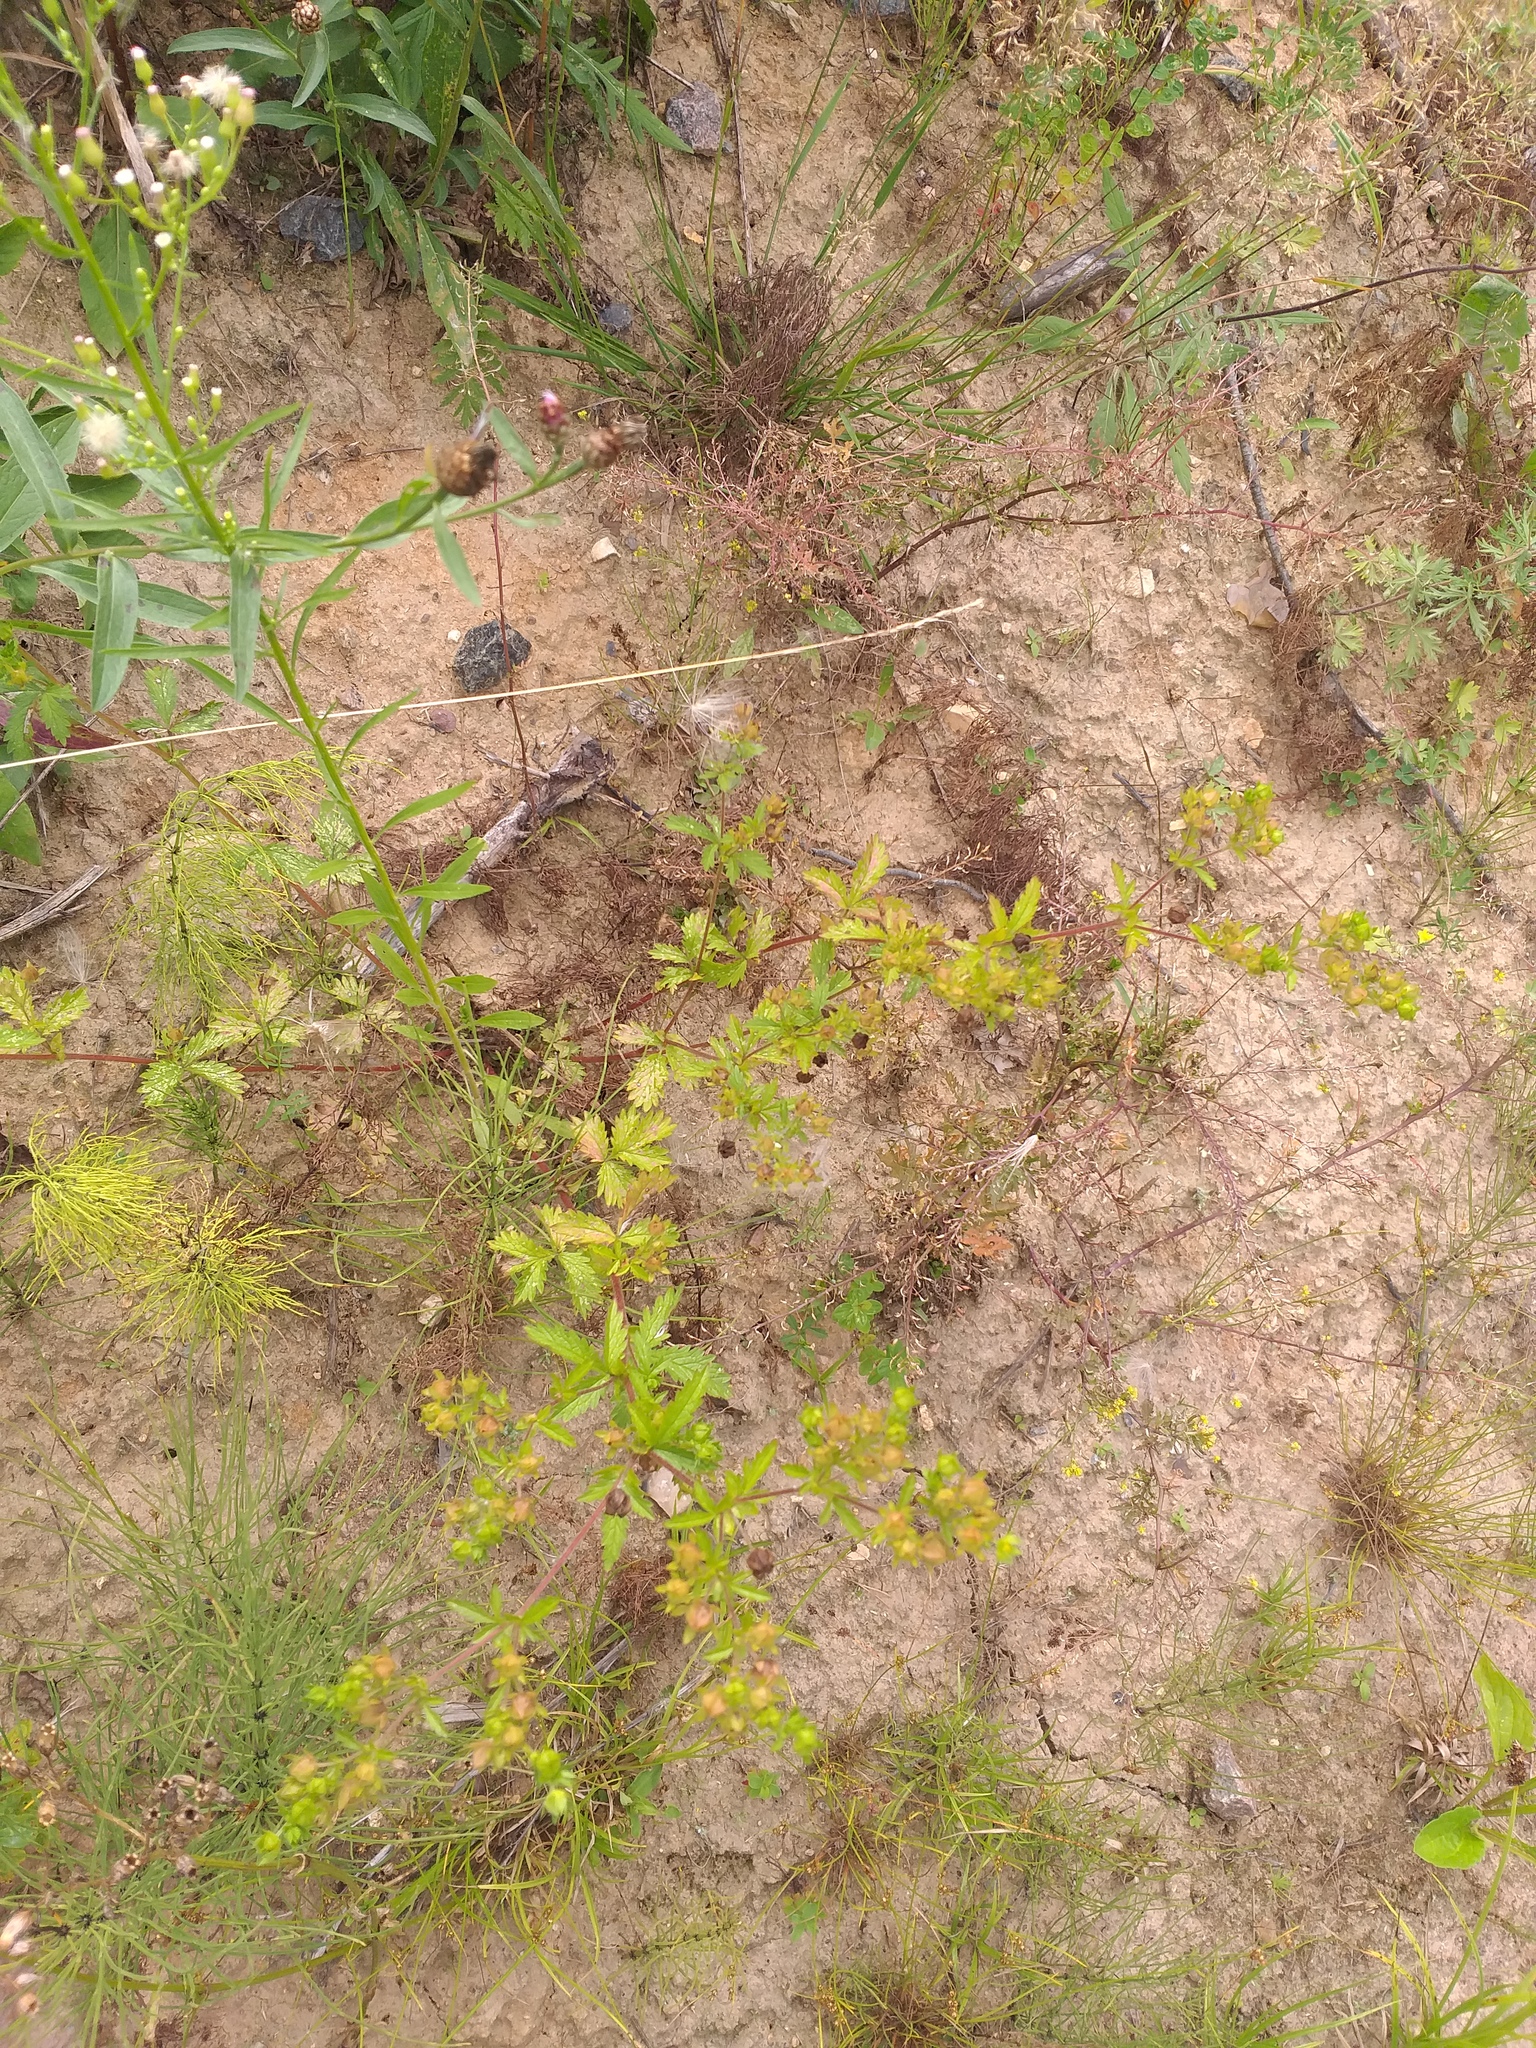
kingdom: Plantae
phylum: Tracheophyta
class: Magnoliopsida
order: Rosales
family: Rosaceae
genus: Potentilla
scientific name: Potentilla norvegica
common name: Ternate-leaved cinquefoil
